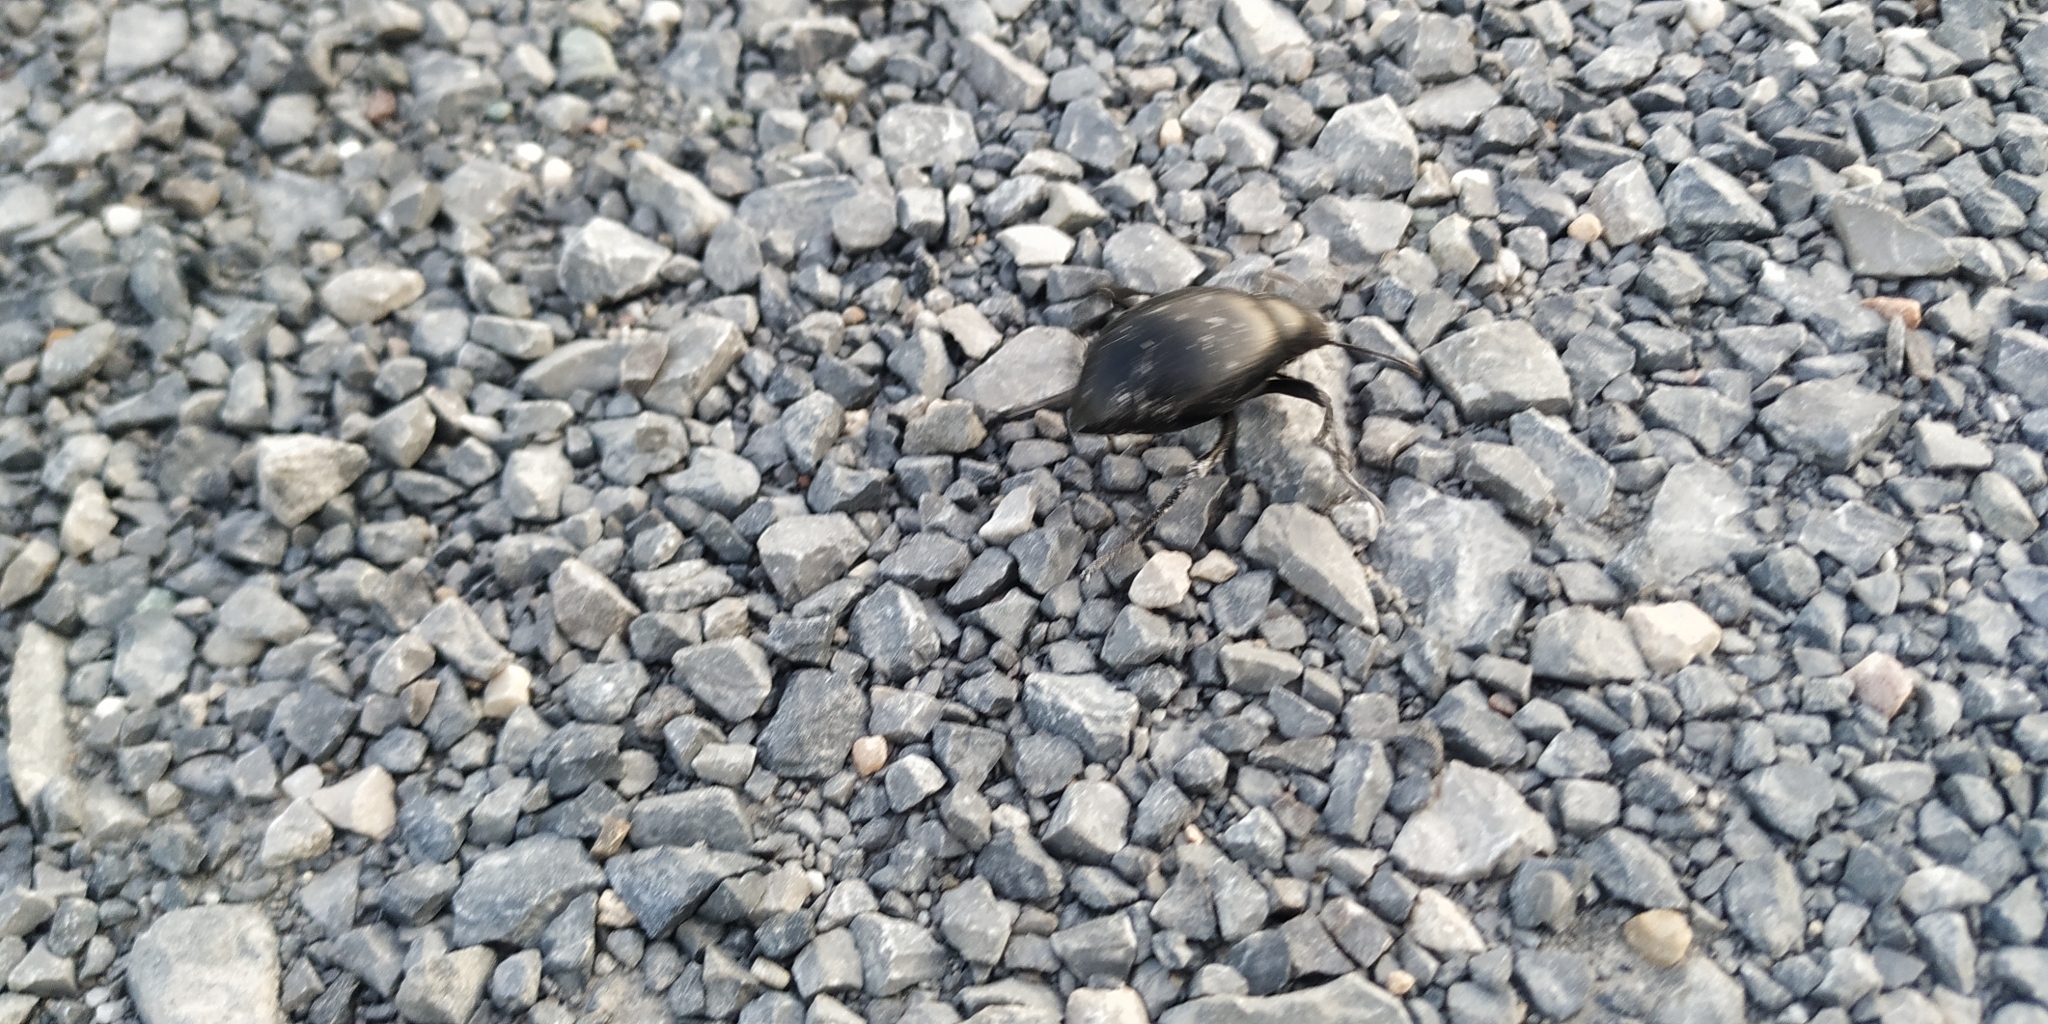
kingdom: Animalia
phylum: Arthropoda
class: Insecta
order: Coleoptera
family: Tenebrionidae
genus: Eleodes
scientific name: Eleodes spinipes
